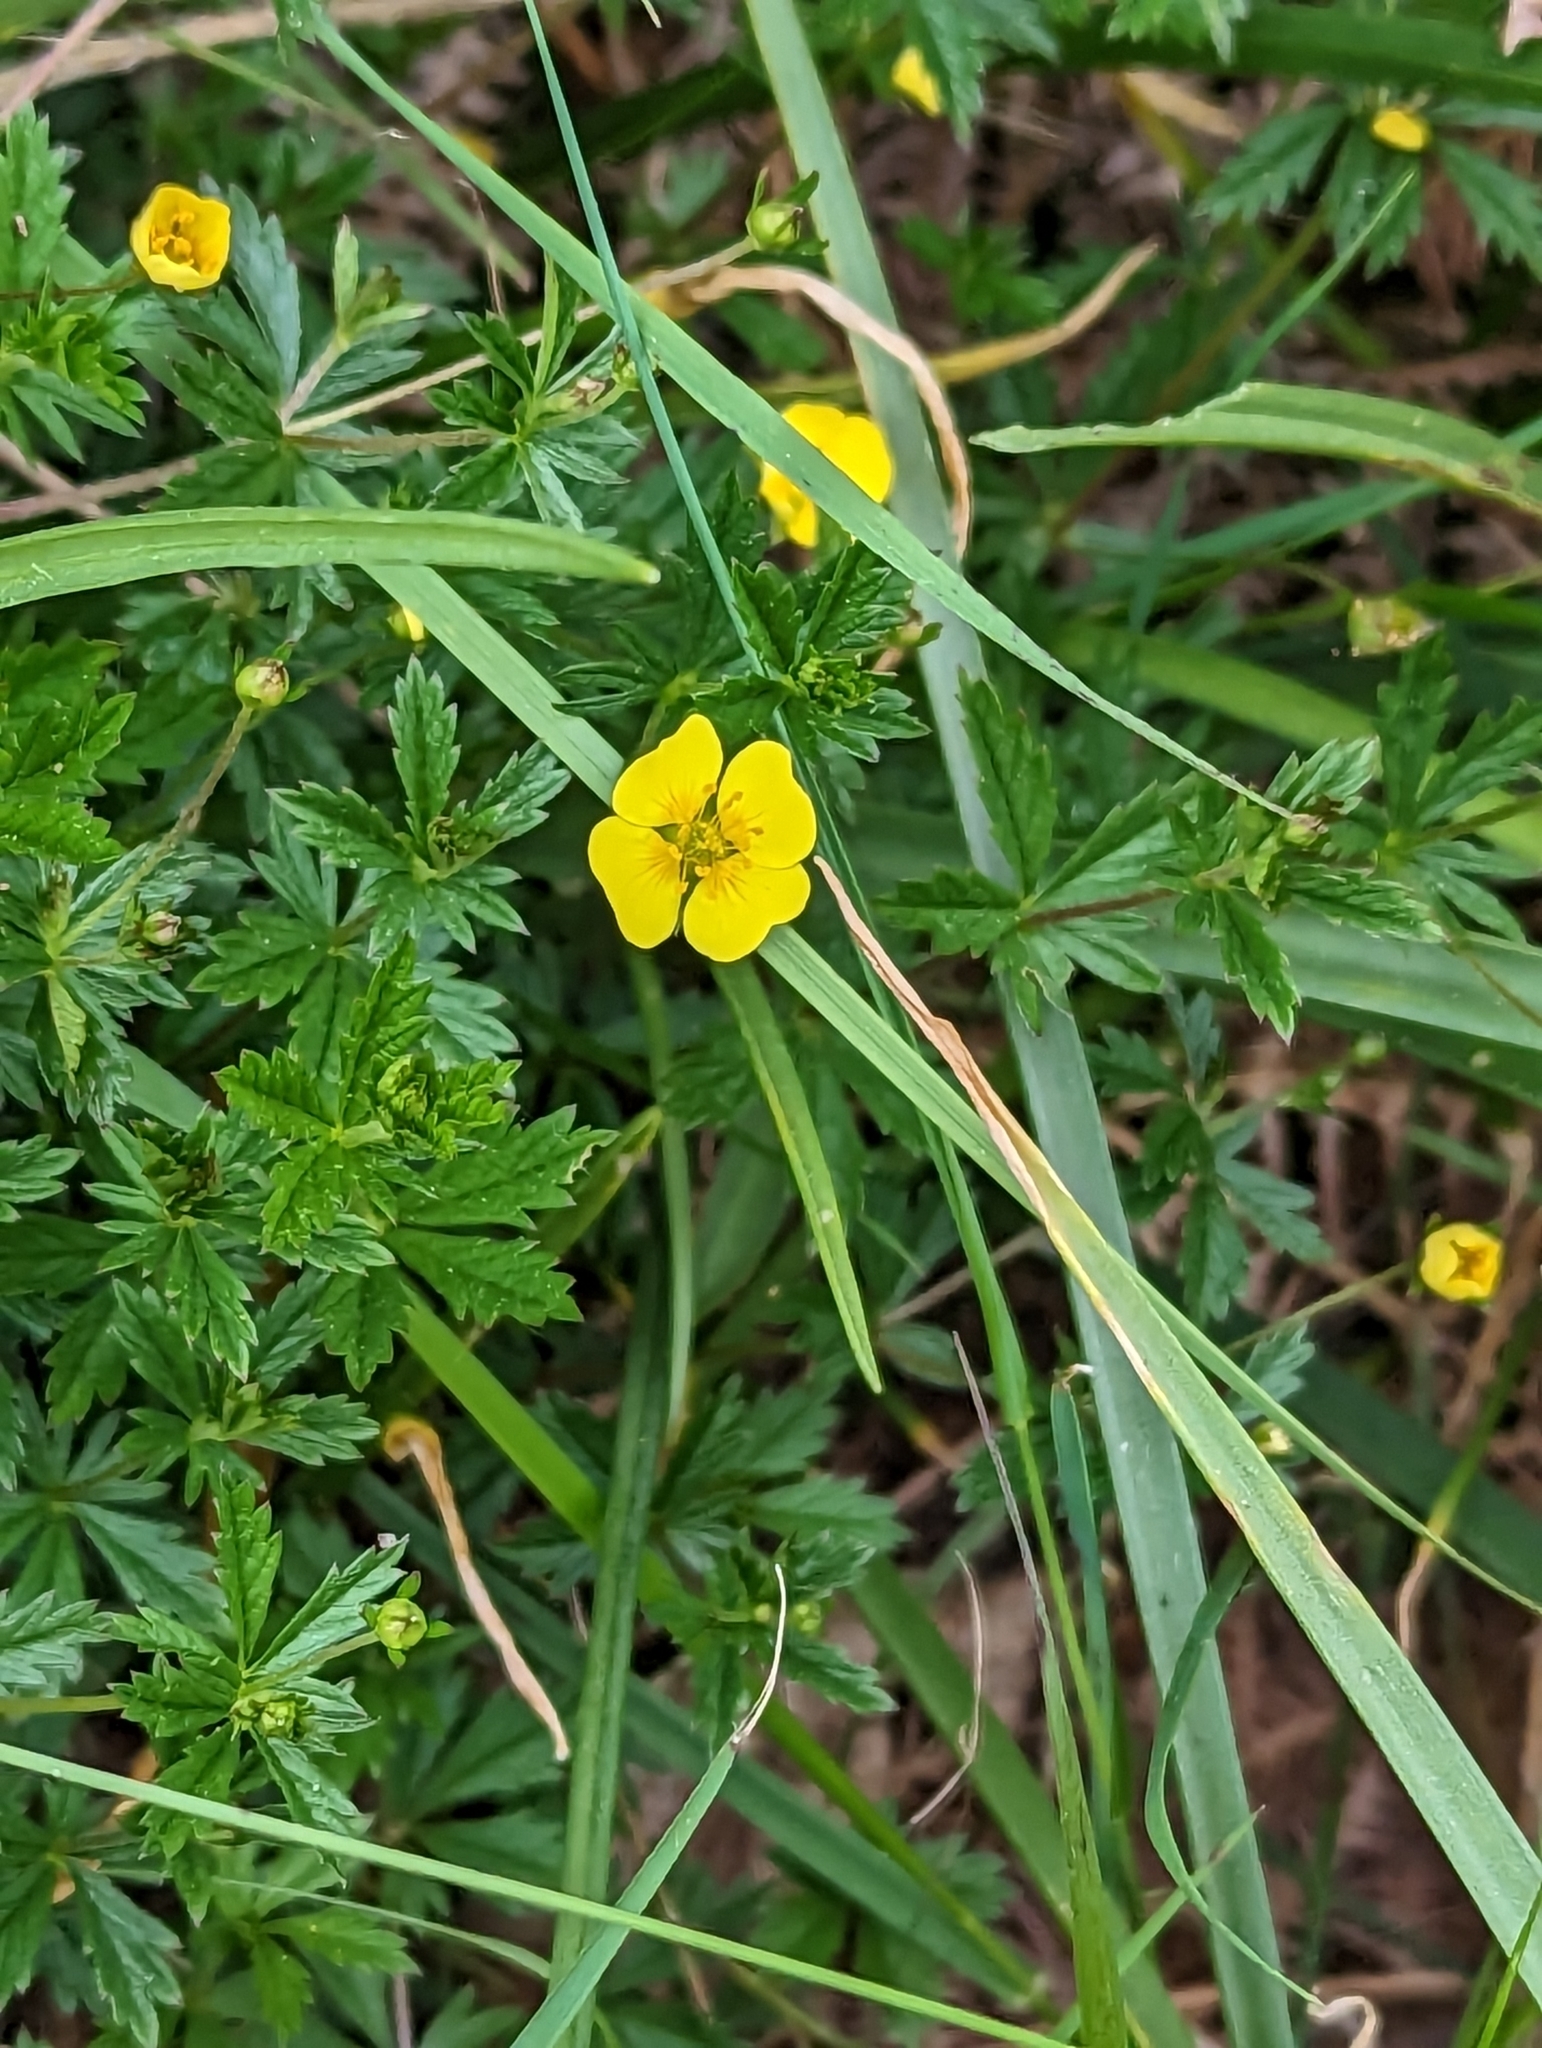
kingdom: Plantae
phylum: Tracheophyta
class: Magnoliopsida
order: Rosales
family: Rosaceae
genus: Potentilla
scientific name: Potentilla erecta
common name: Tormentil
